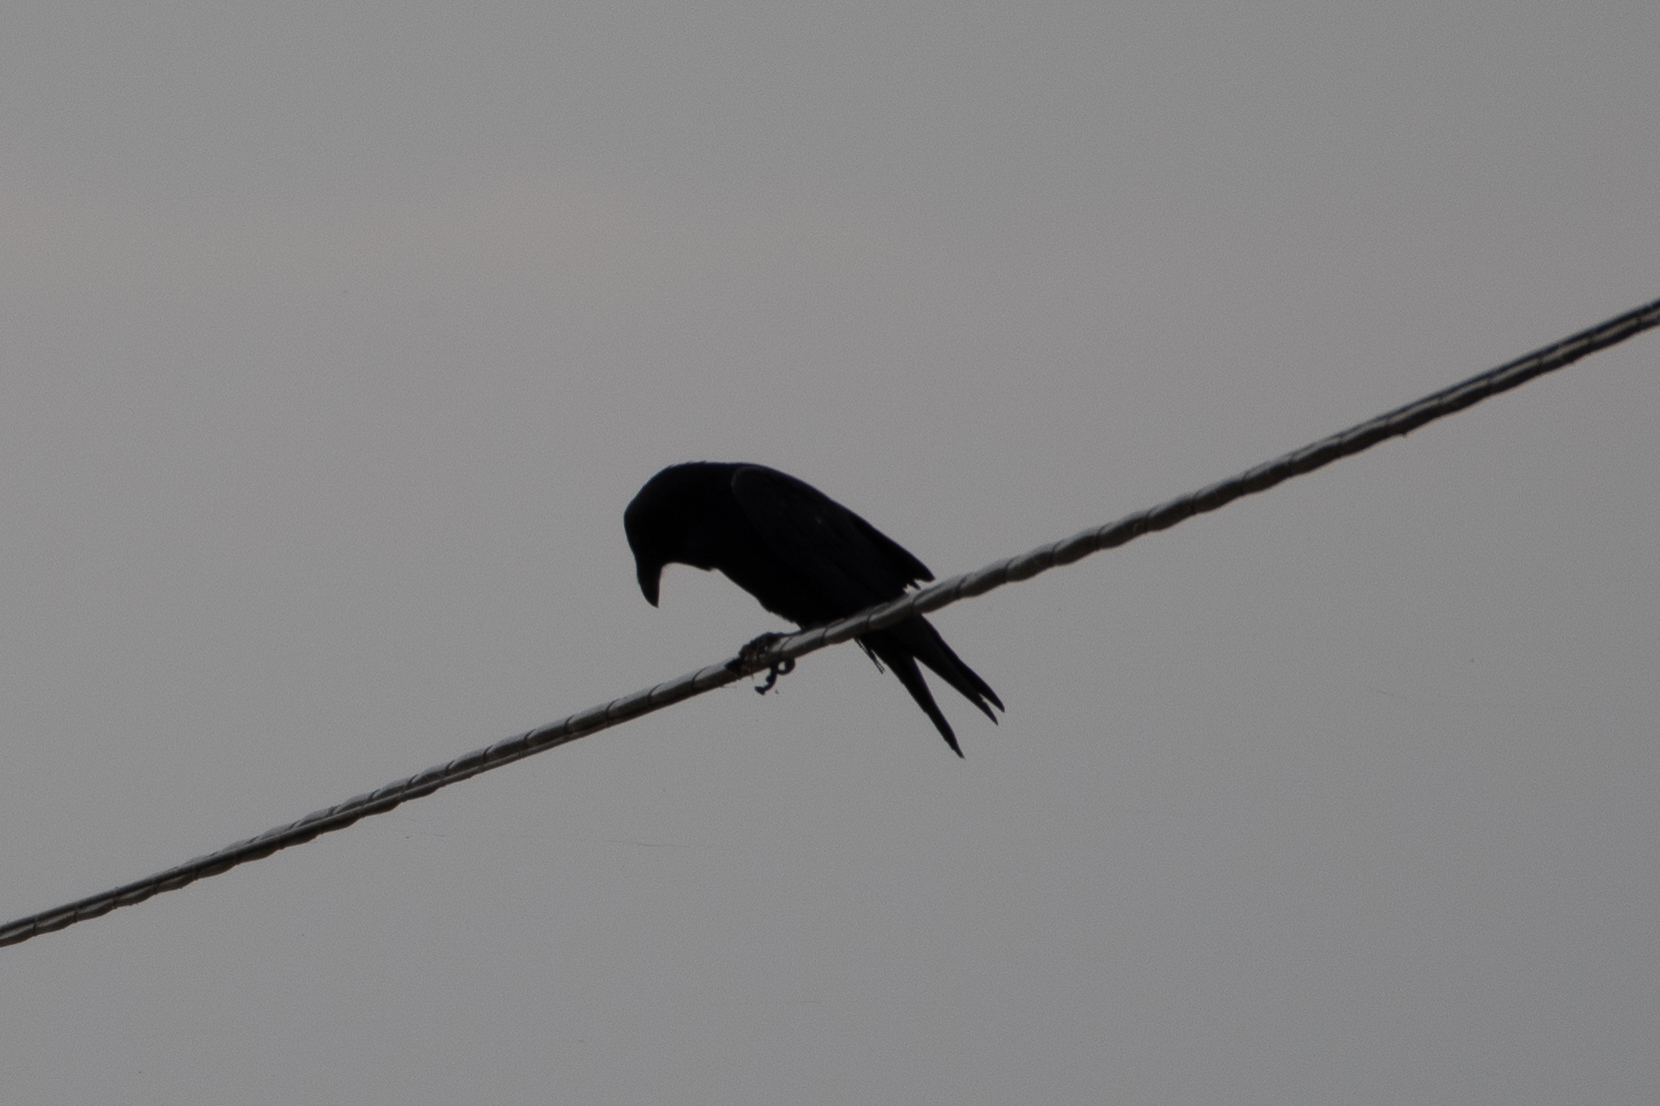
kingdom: Animalia
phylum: Chordata
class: Aves
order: Passeriformes
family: Corvidae
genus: Corvus
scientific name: Corvus corax
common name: Common raven
